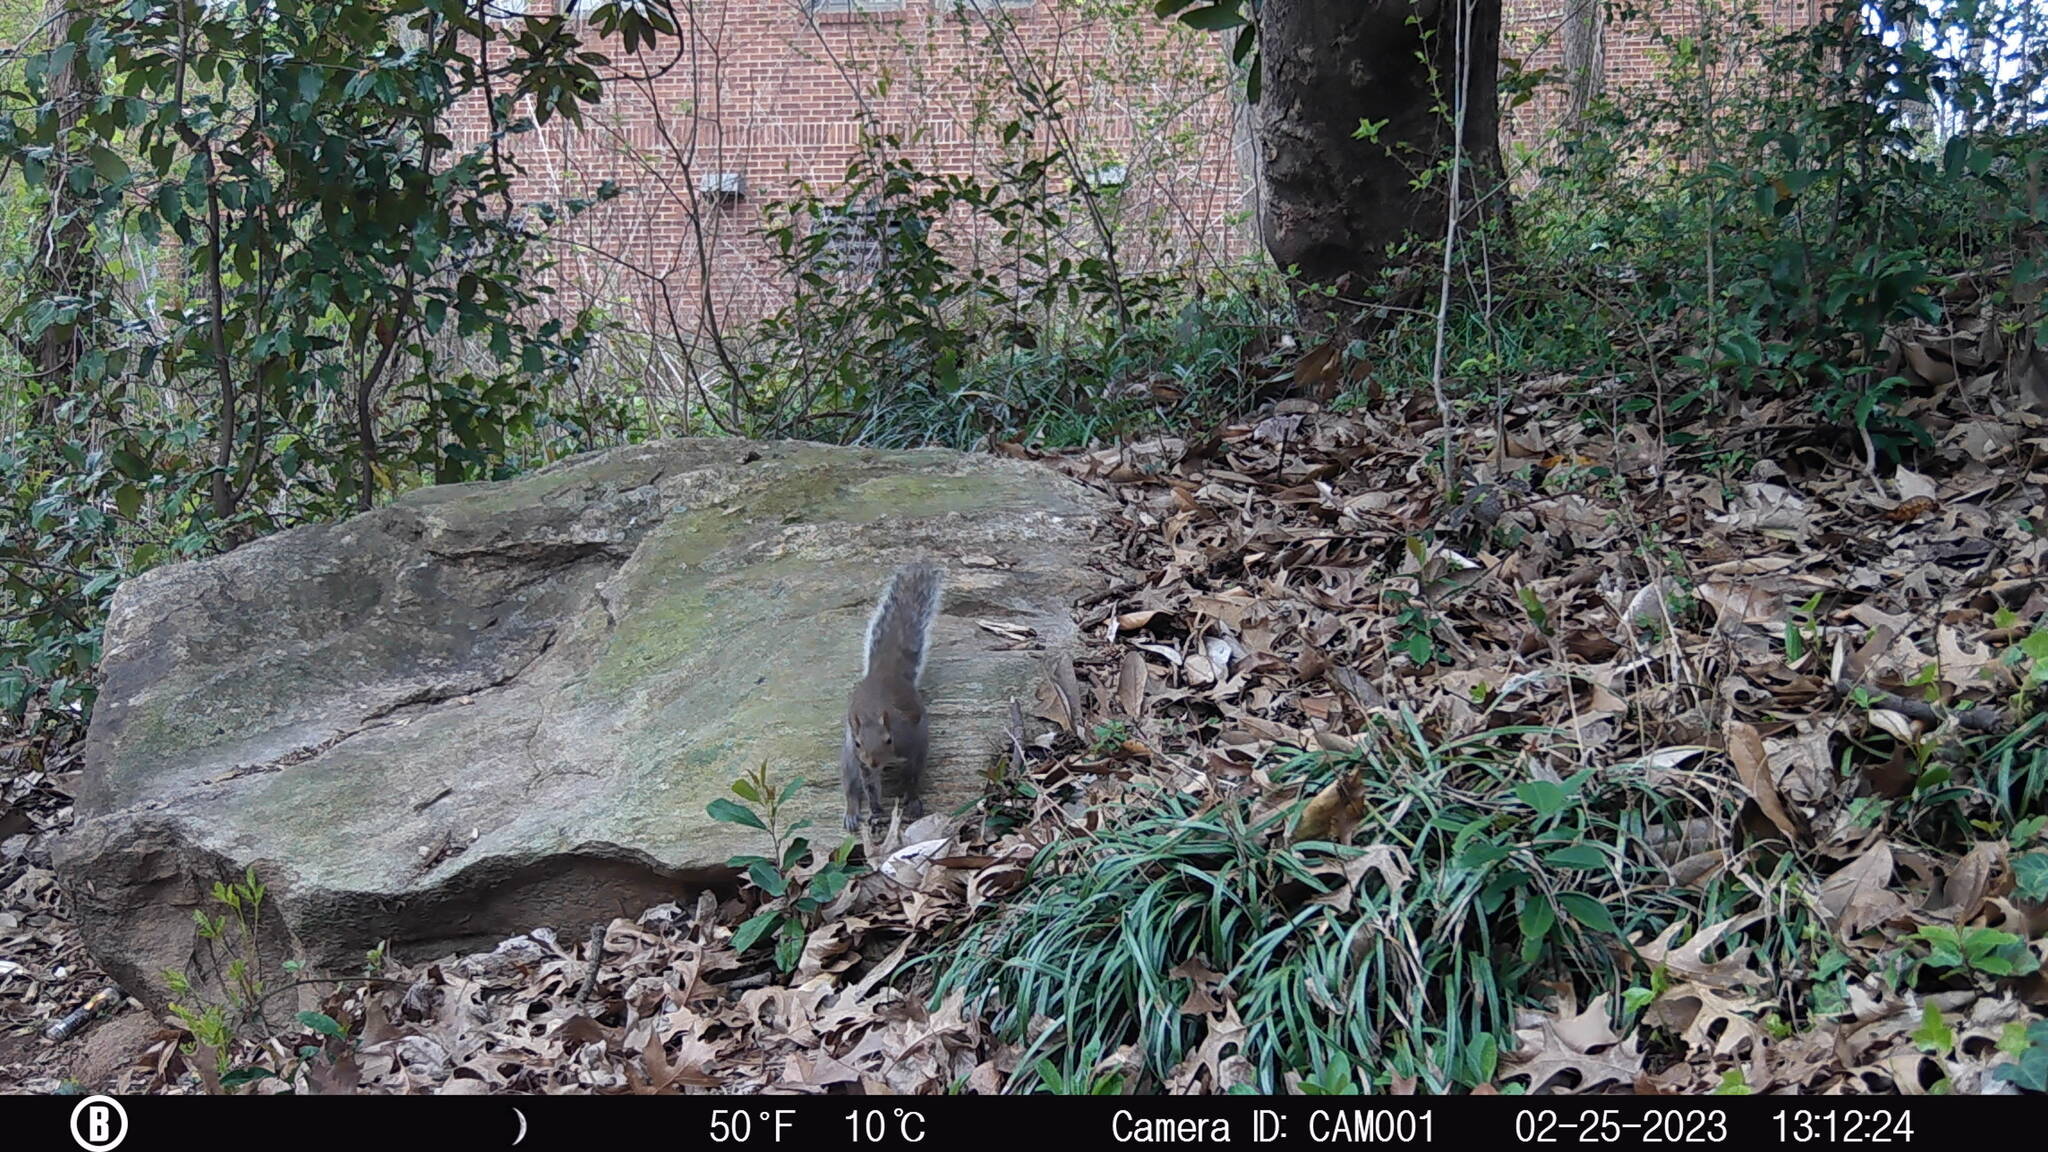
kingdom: Animalia
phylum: Chordata
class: Mammalia
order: Rodentia
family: Sciuridae
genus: Sciurus
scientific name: Sciurus carolinensis
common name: Eastern gray squirrel
